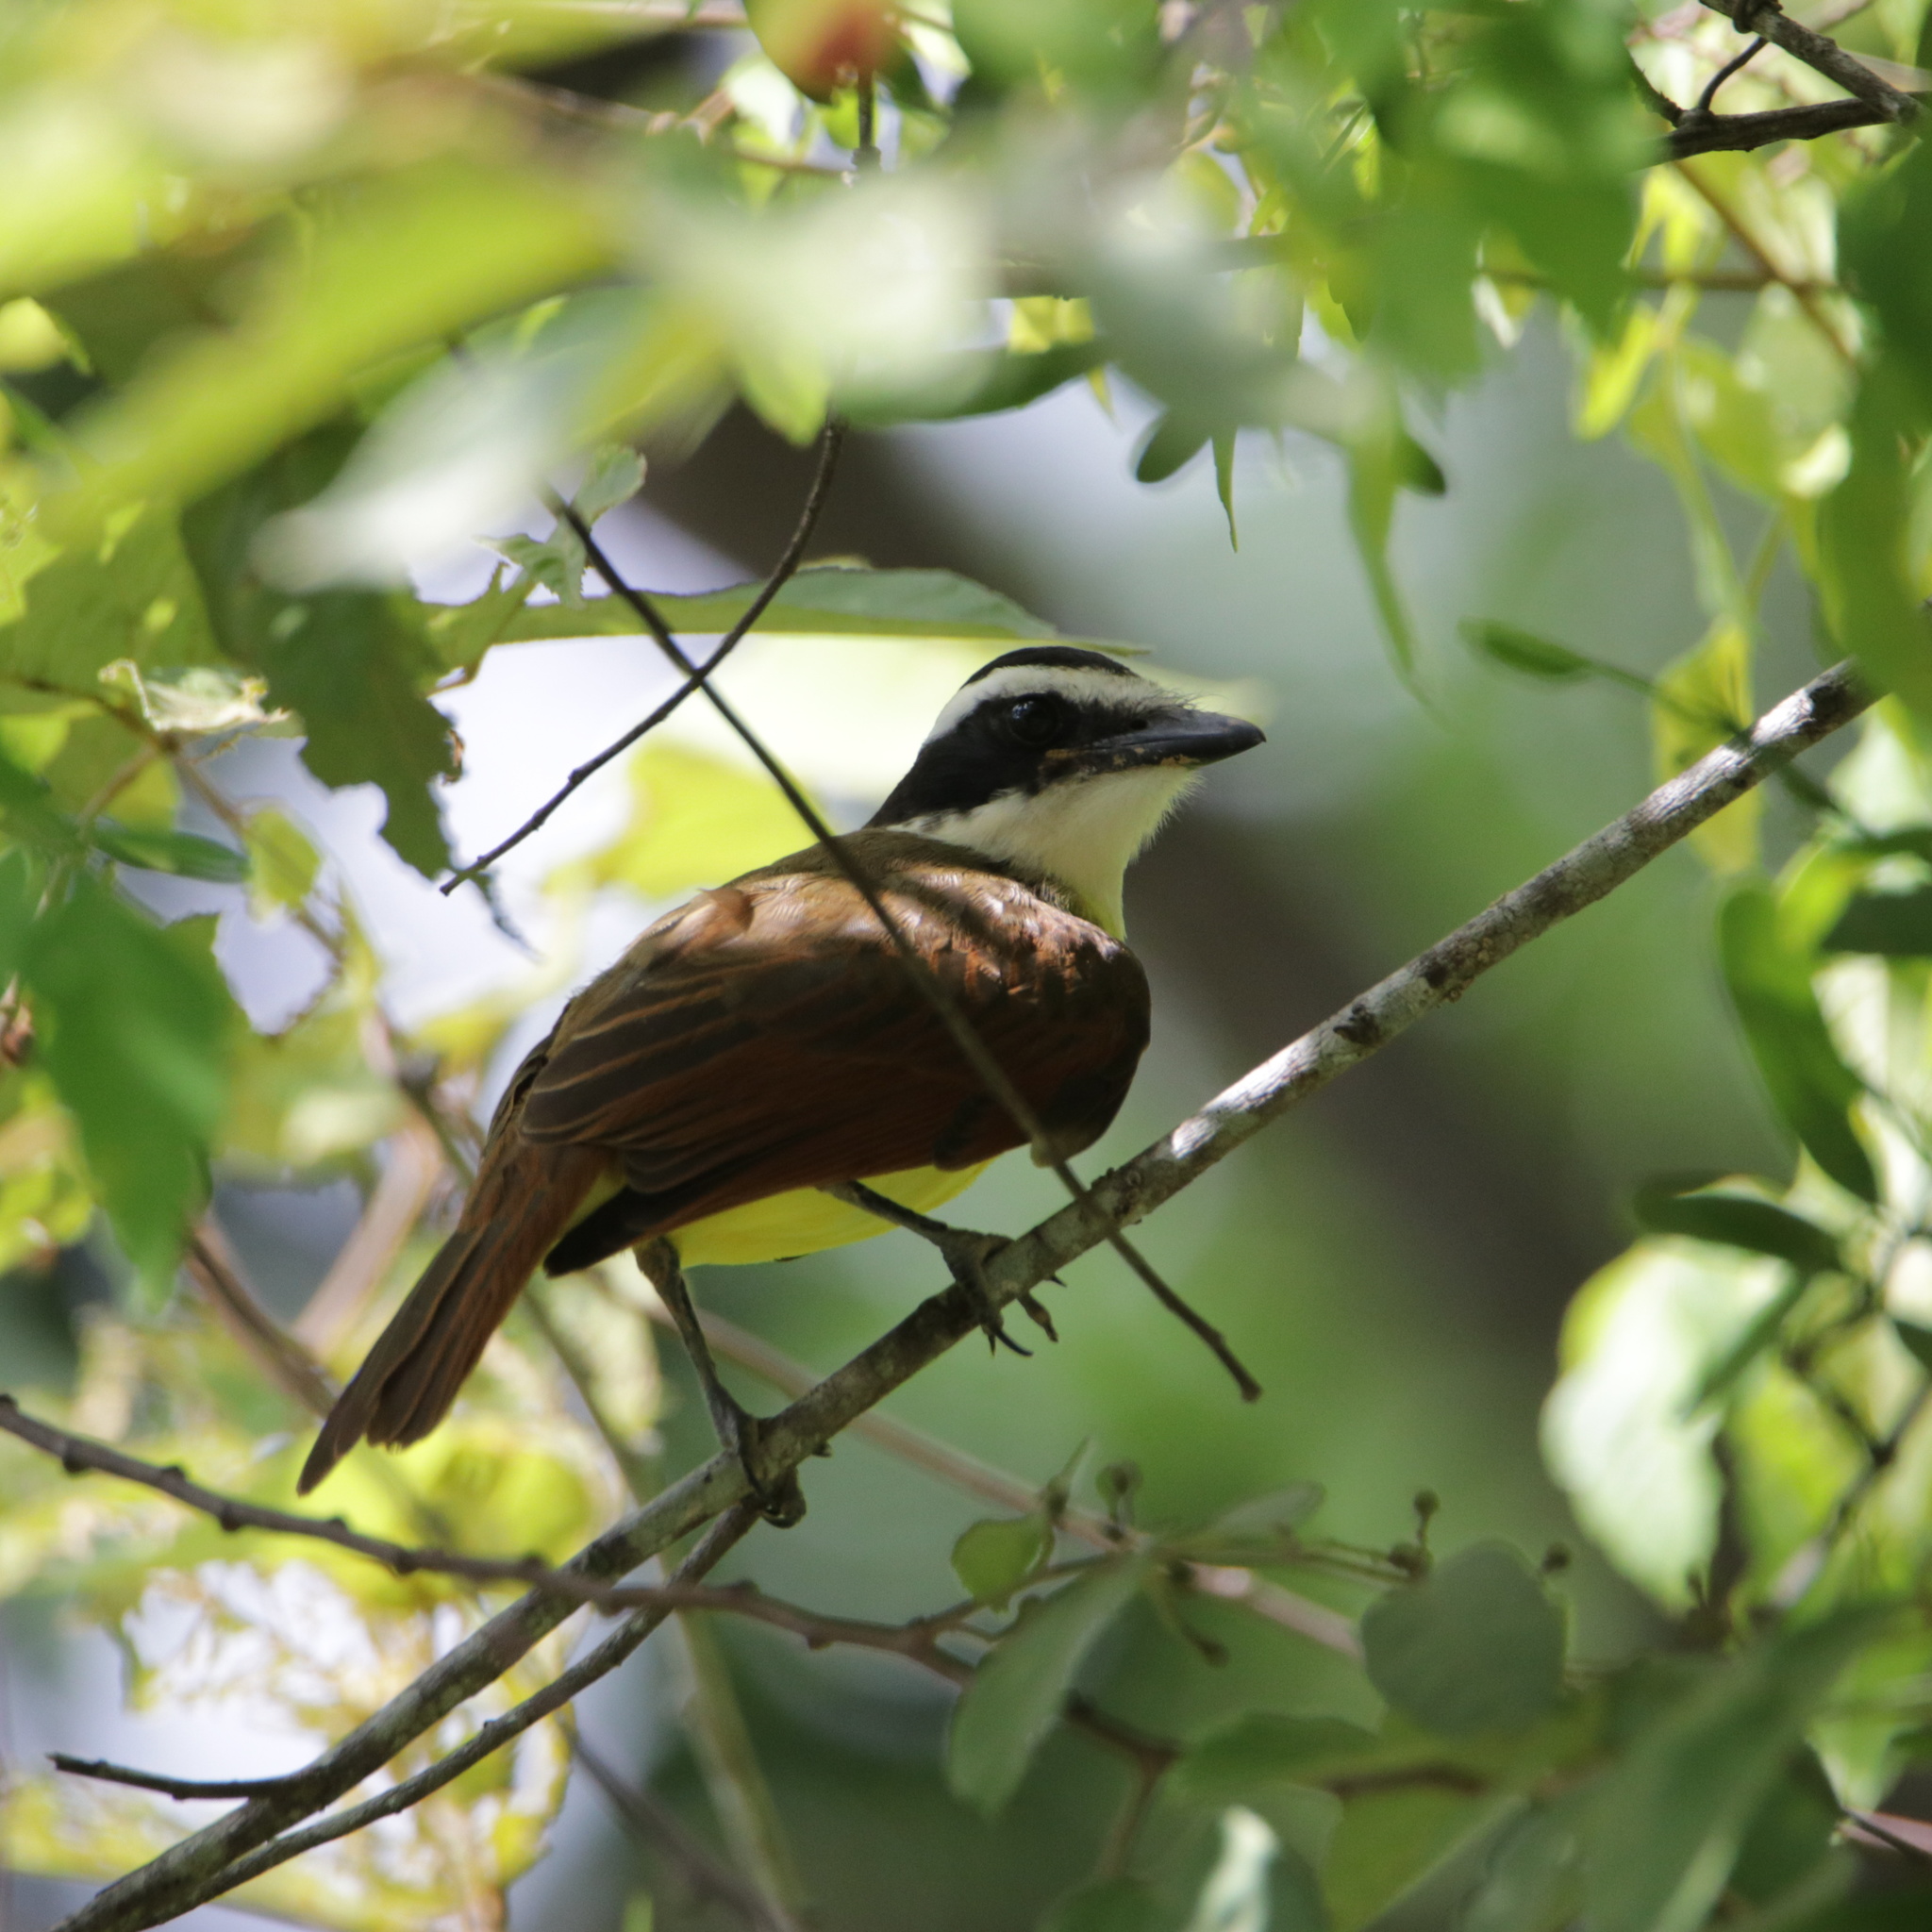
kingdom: Animalia
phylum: Chordata
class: Aves
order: Passeriformes
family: Tyrannidae
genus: Pitangus
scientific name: Pitangus sulphuratus
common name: Great kiskadee
